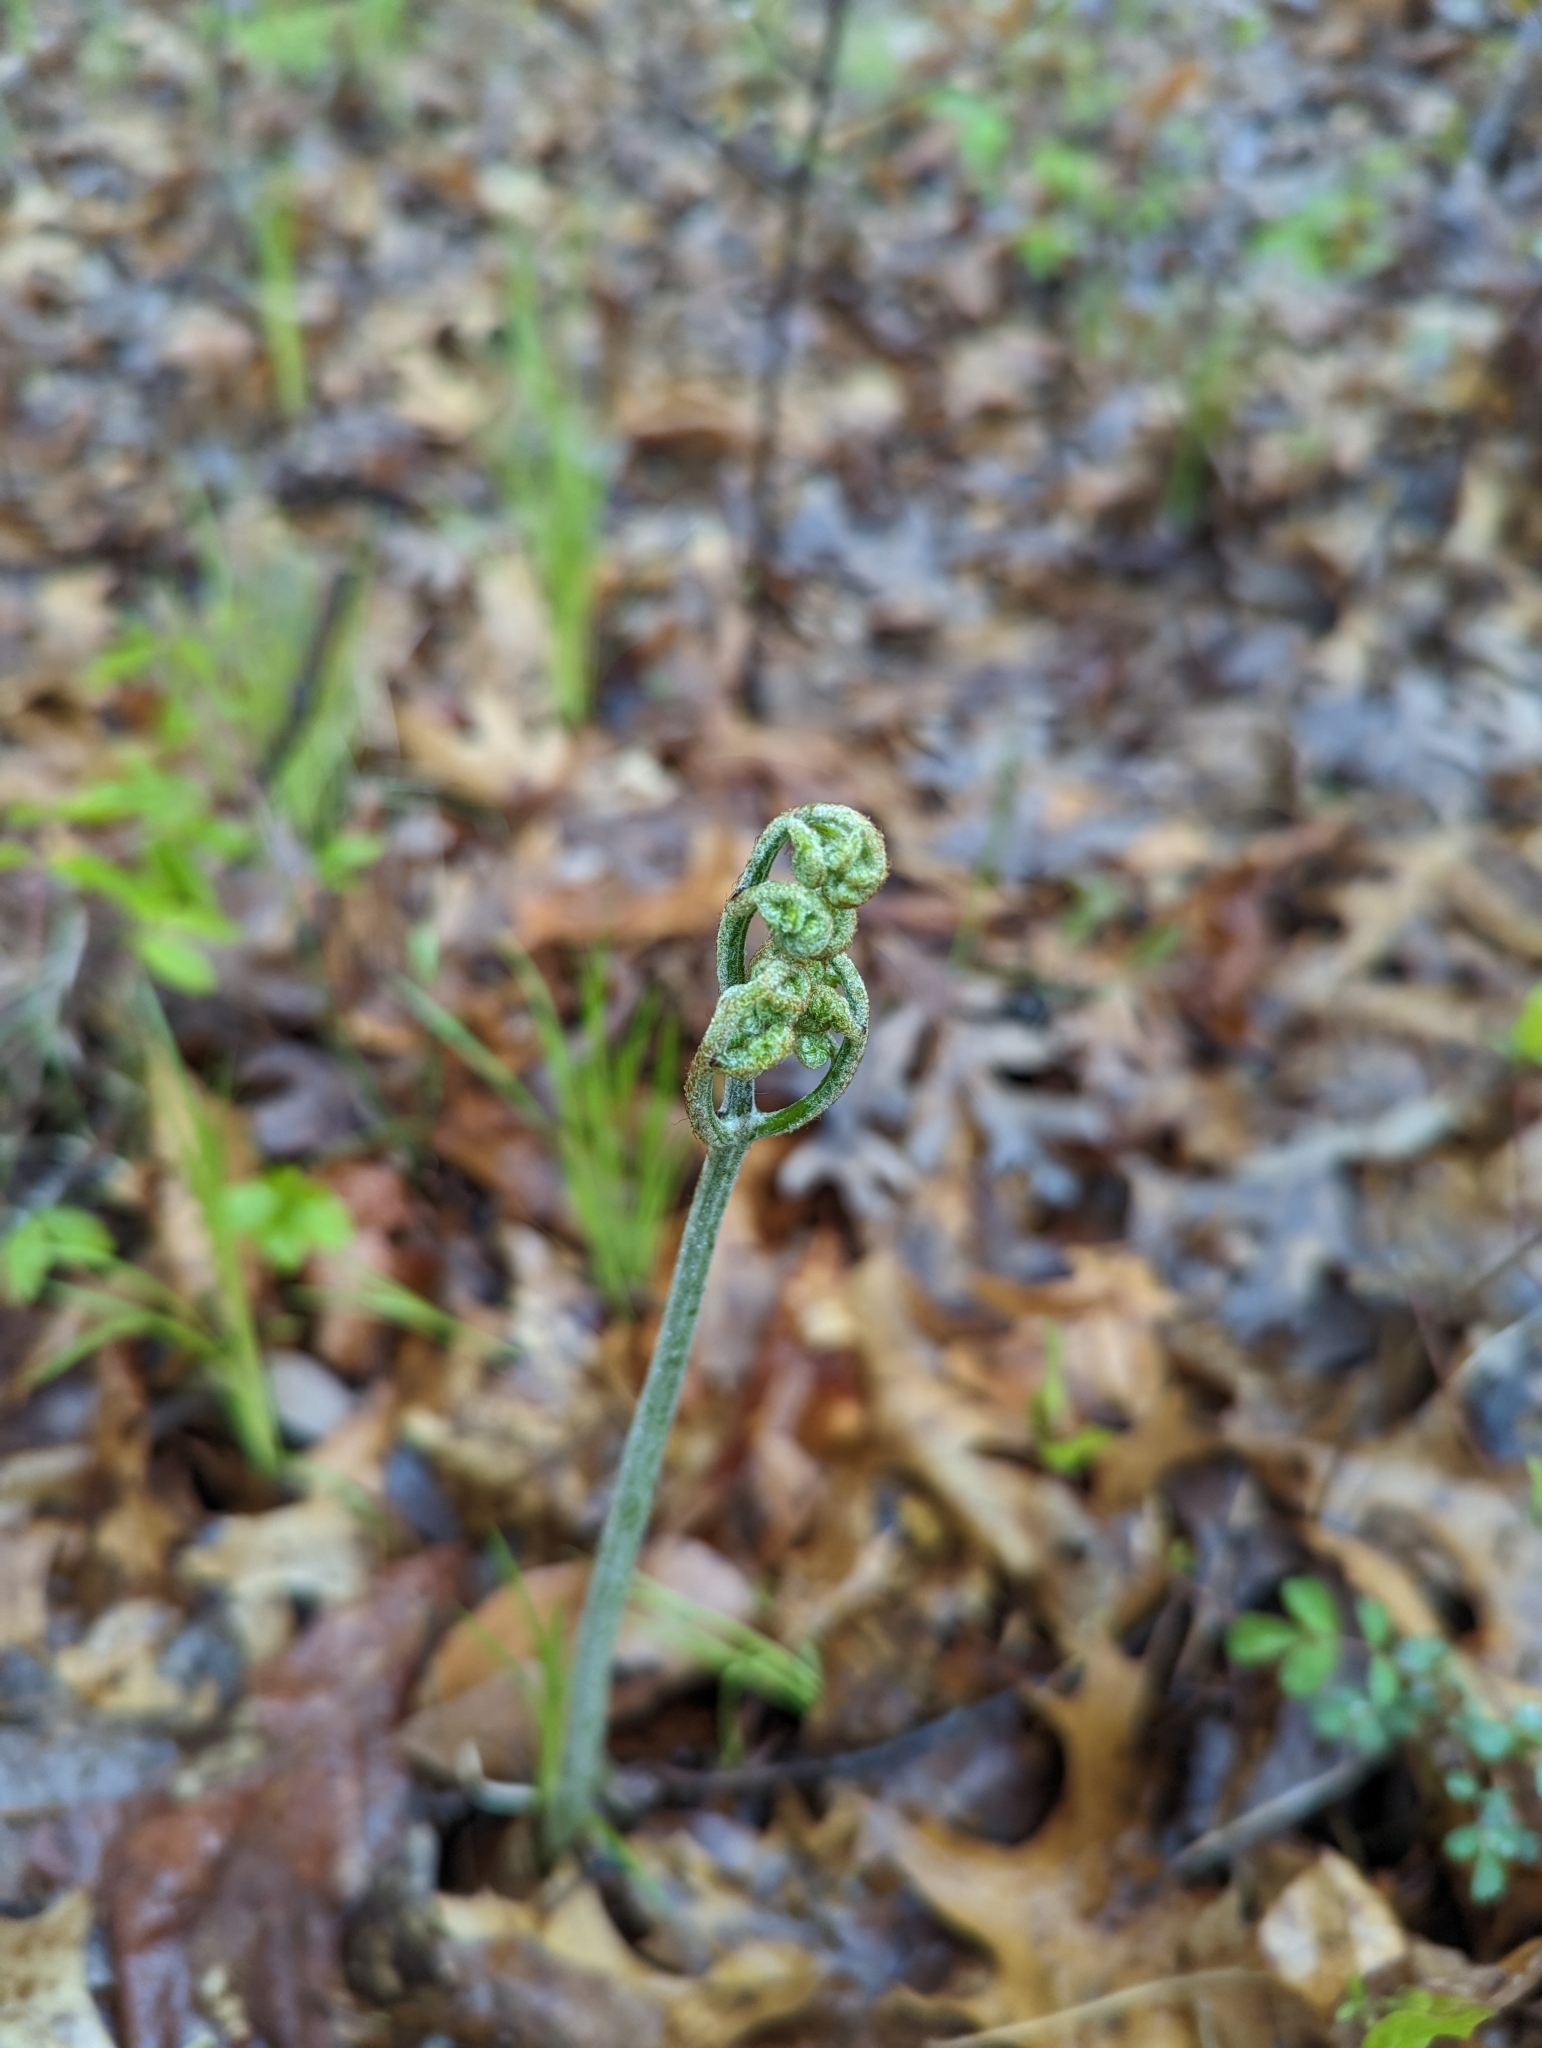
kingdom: Plantae
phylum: Tracheophyta
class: Polypodiopsida
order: Polypodiales
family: Dennstaedtiaceae
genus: Pteridium
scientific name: Pteridium aquilinum
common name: Bracken
